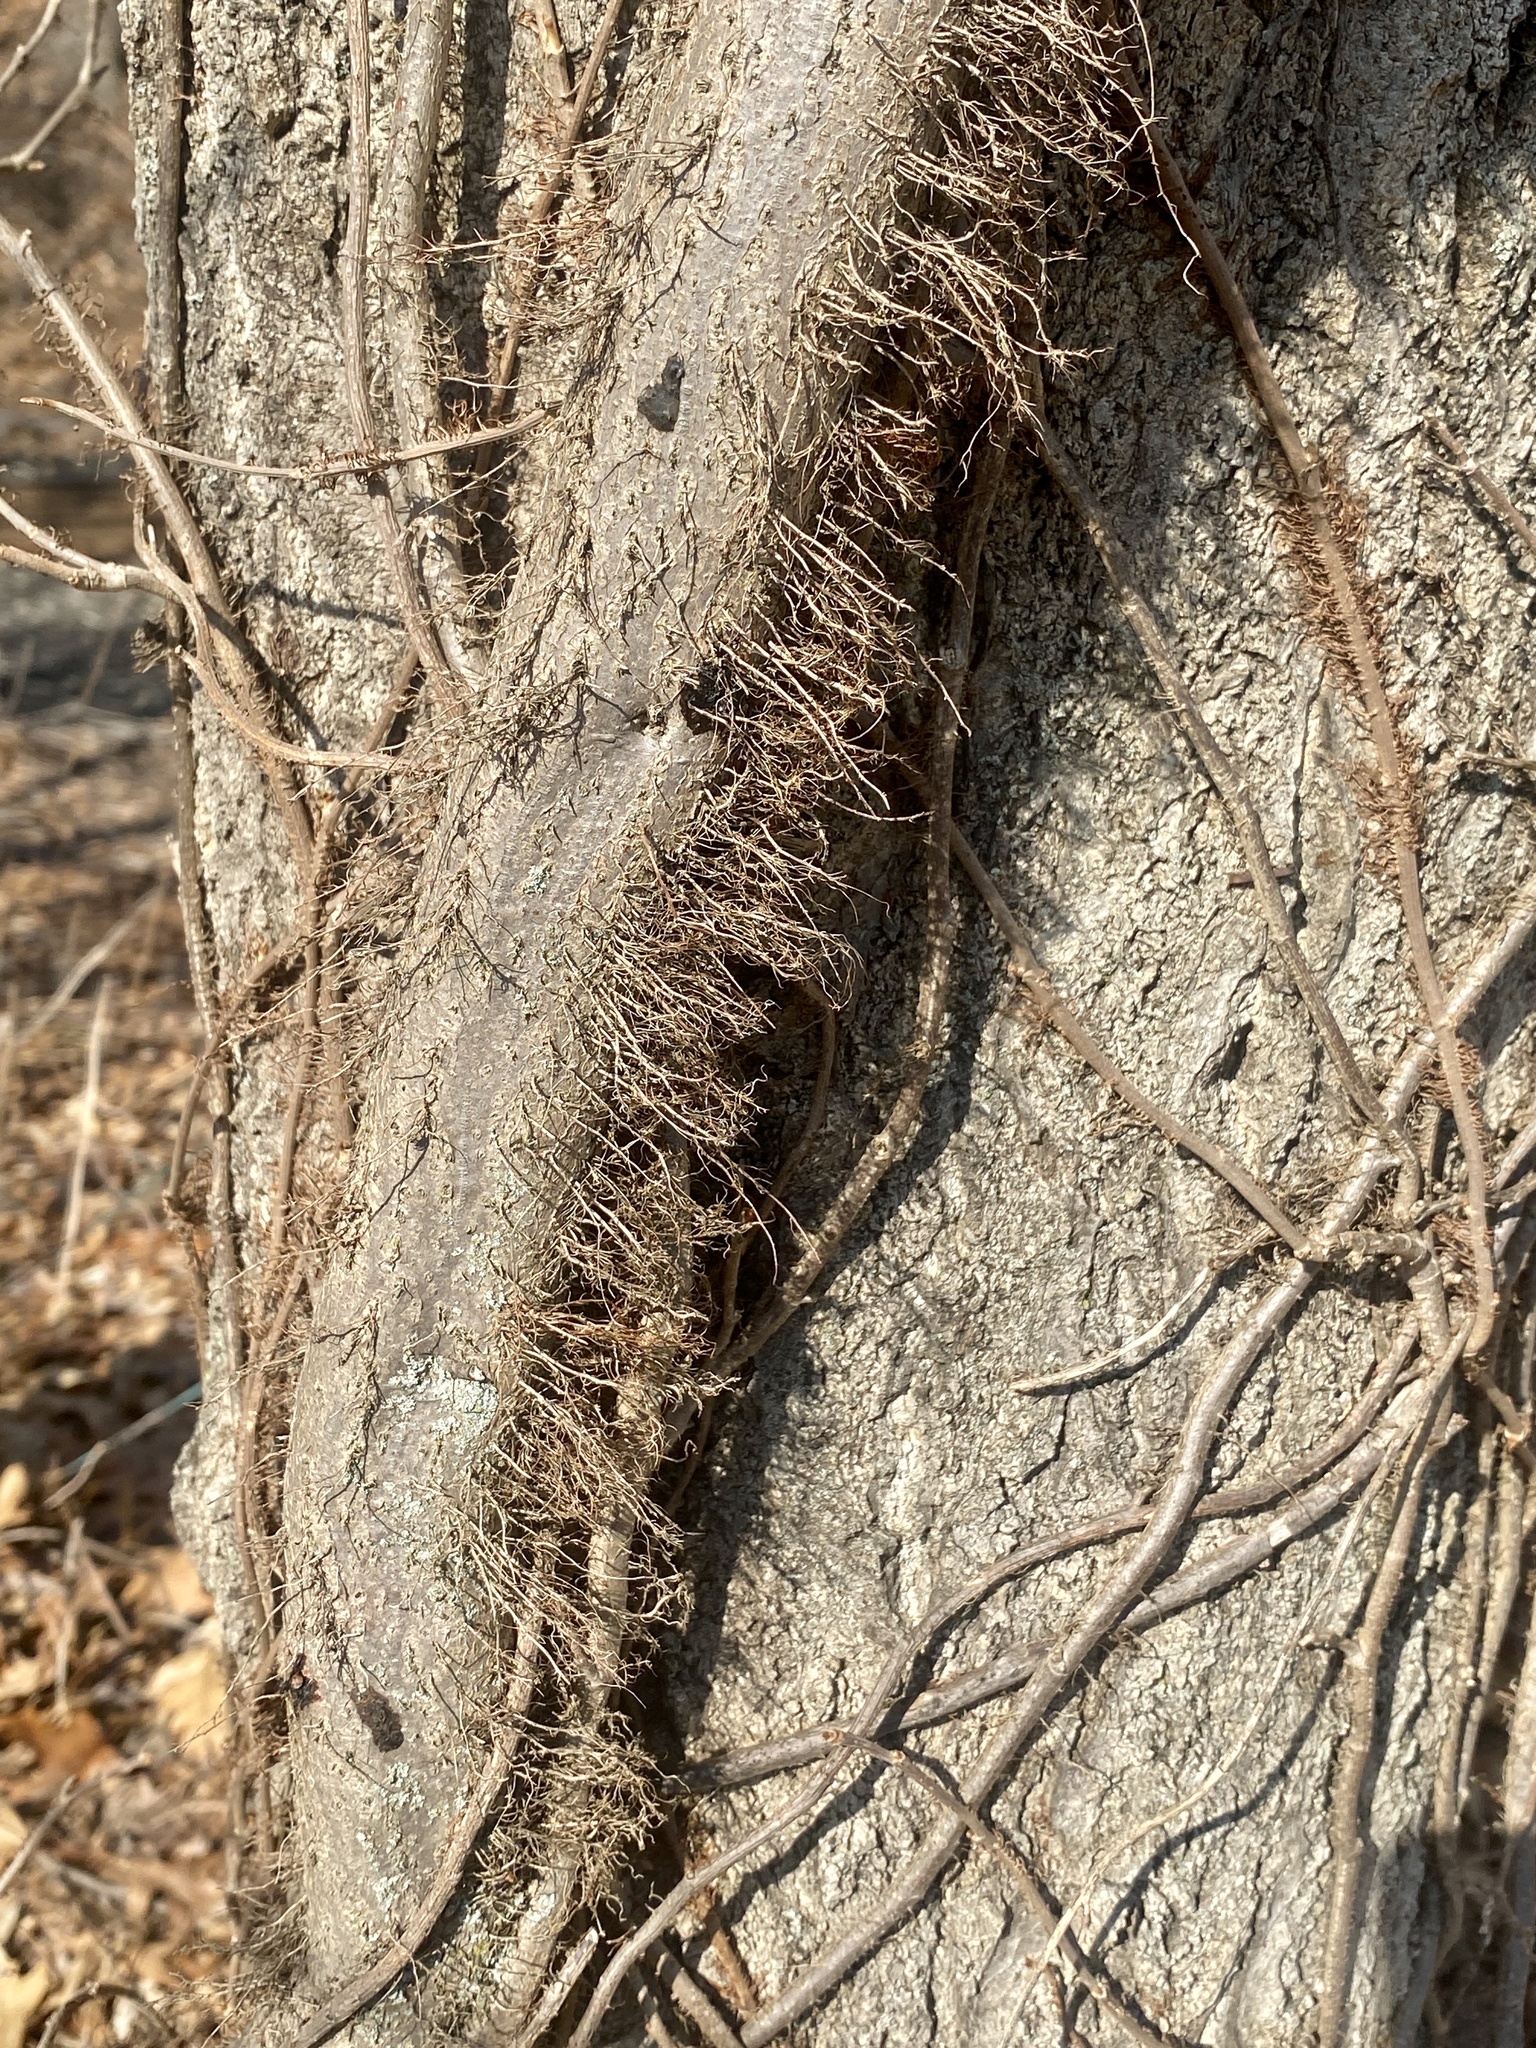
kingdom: Plantae
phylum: Tracheophyta
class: Magnoliopsida
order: Sapindales
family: Anacardiaceae
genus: Toxicodendron
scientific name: Toxicodendron radicans
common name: Poison ivy
